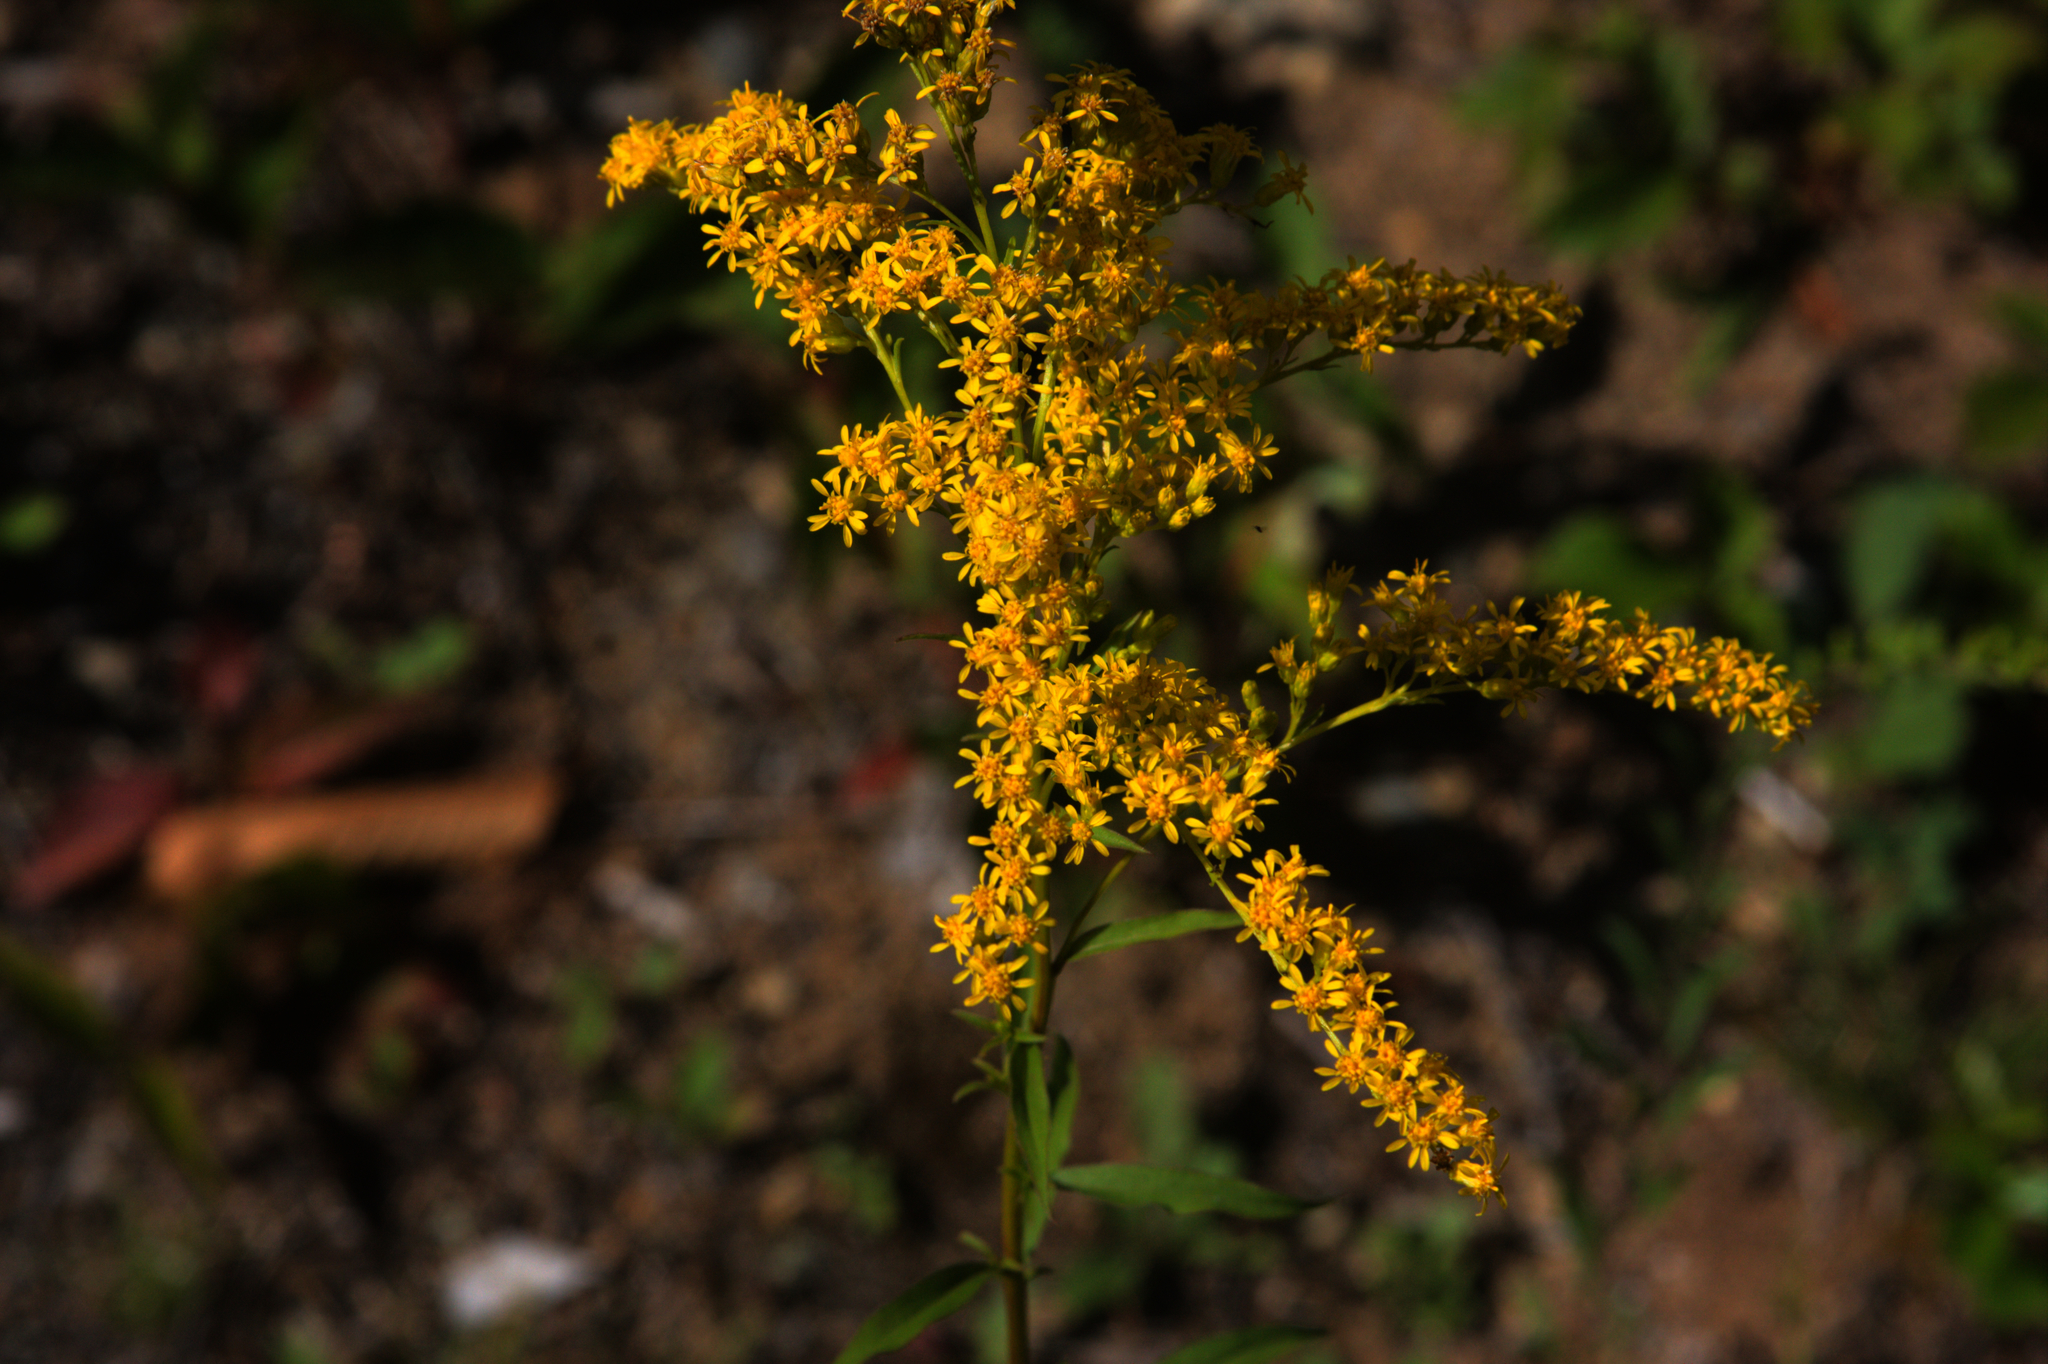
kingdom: Plantae
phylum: Tracheophyta
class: Magnoliopsida
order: Asterales
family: Asteraceae
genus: Solidago
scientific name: Solidago juncea
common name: Early goldenrod
